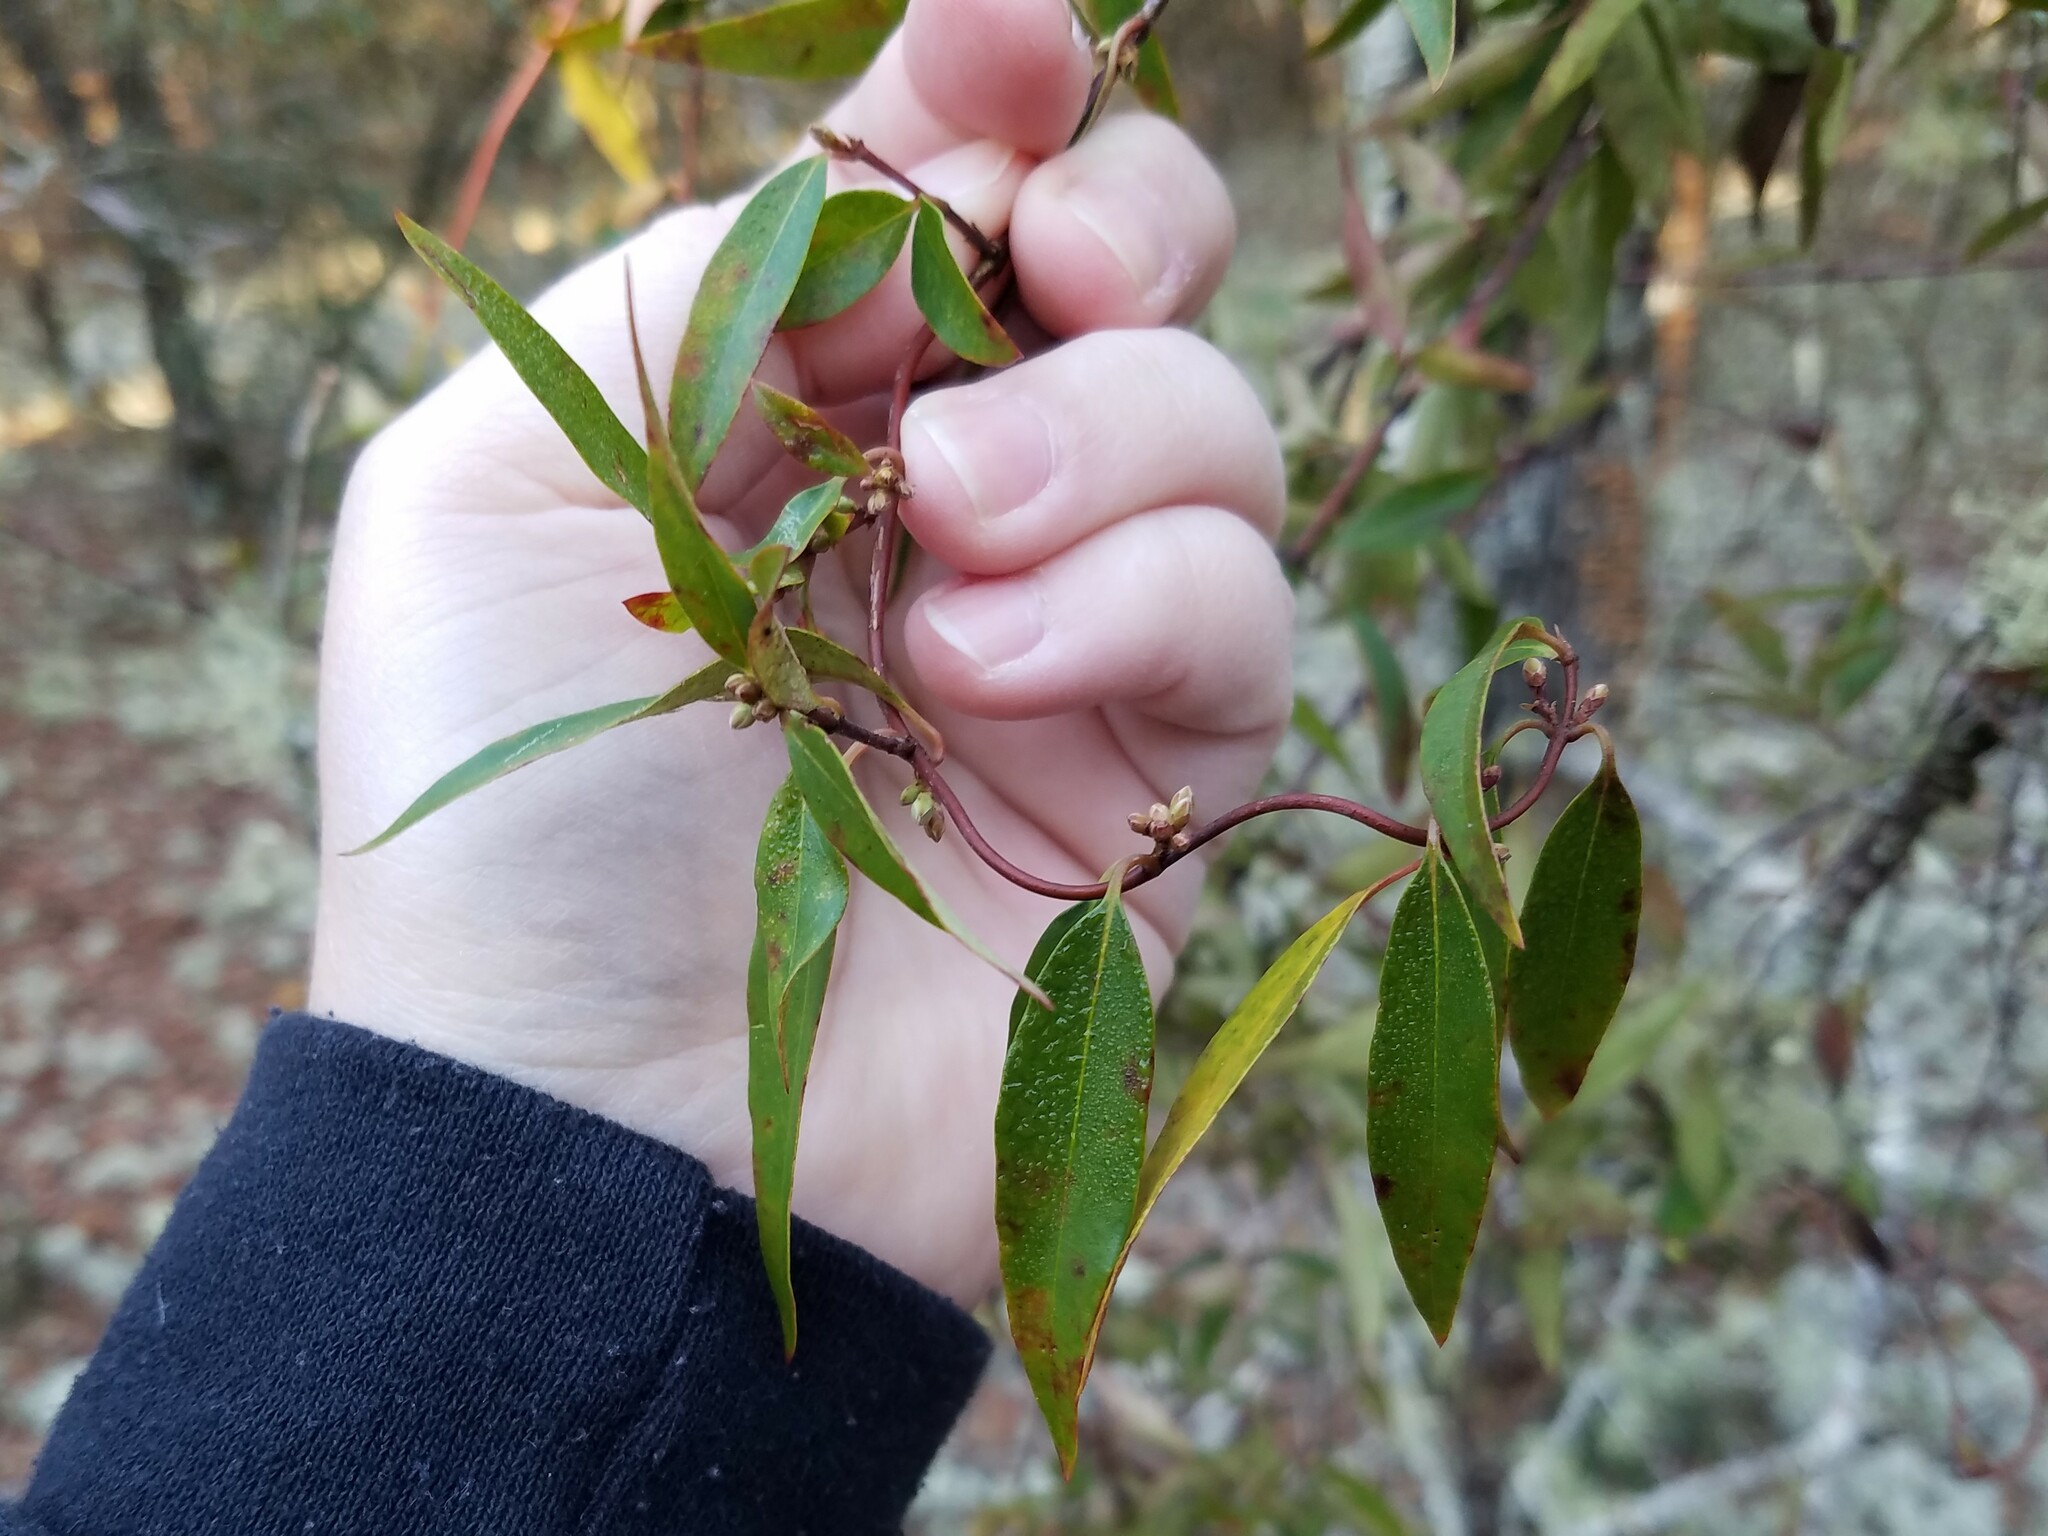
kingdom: Plantae
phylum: Tracheophyta
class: Magnoliopsida
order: Gentianales
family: Gelsemiaceae
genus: Gelsemium
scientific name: Gelsemium sempervirens
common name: Carolina-jasmine
